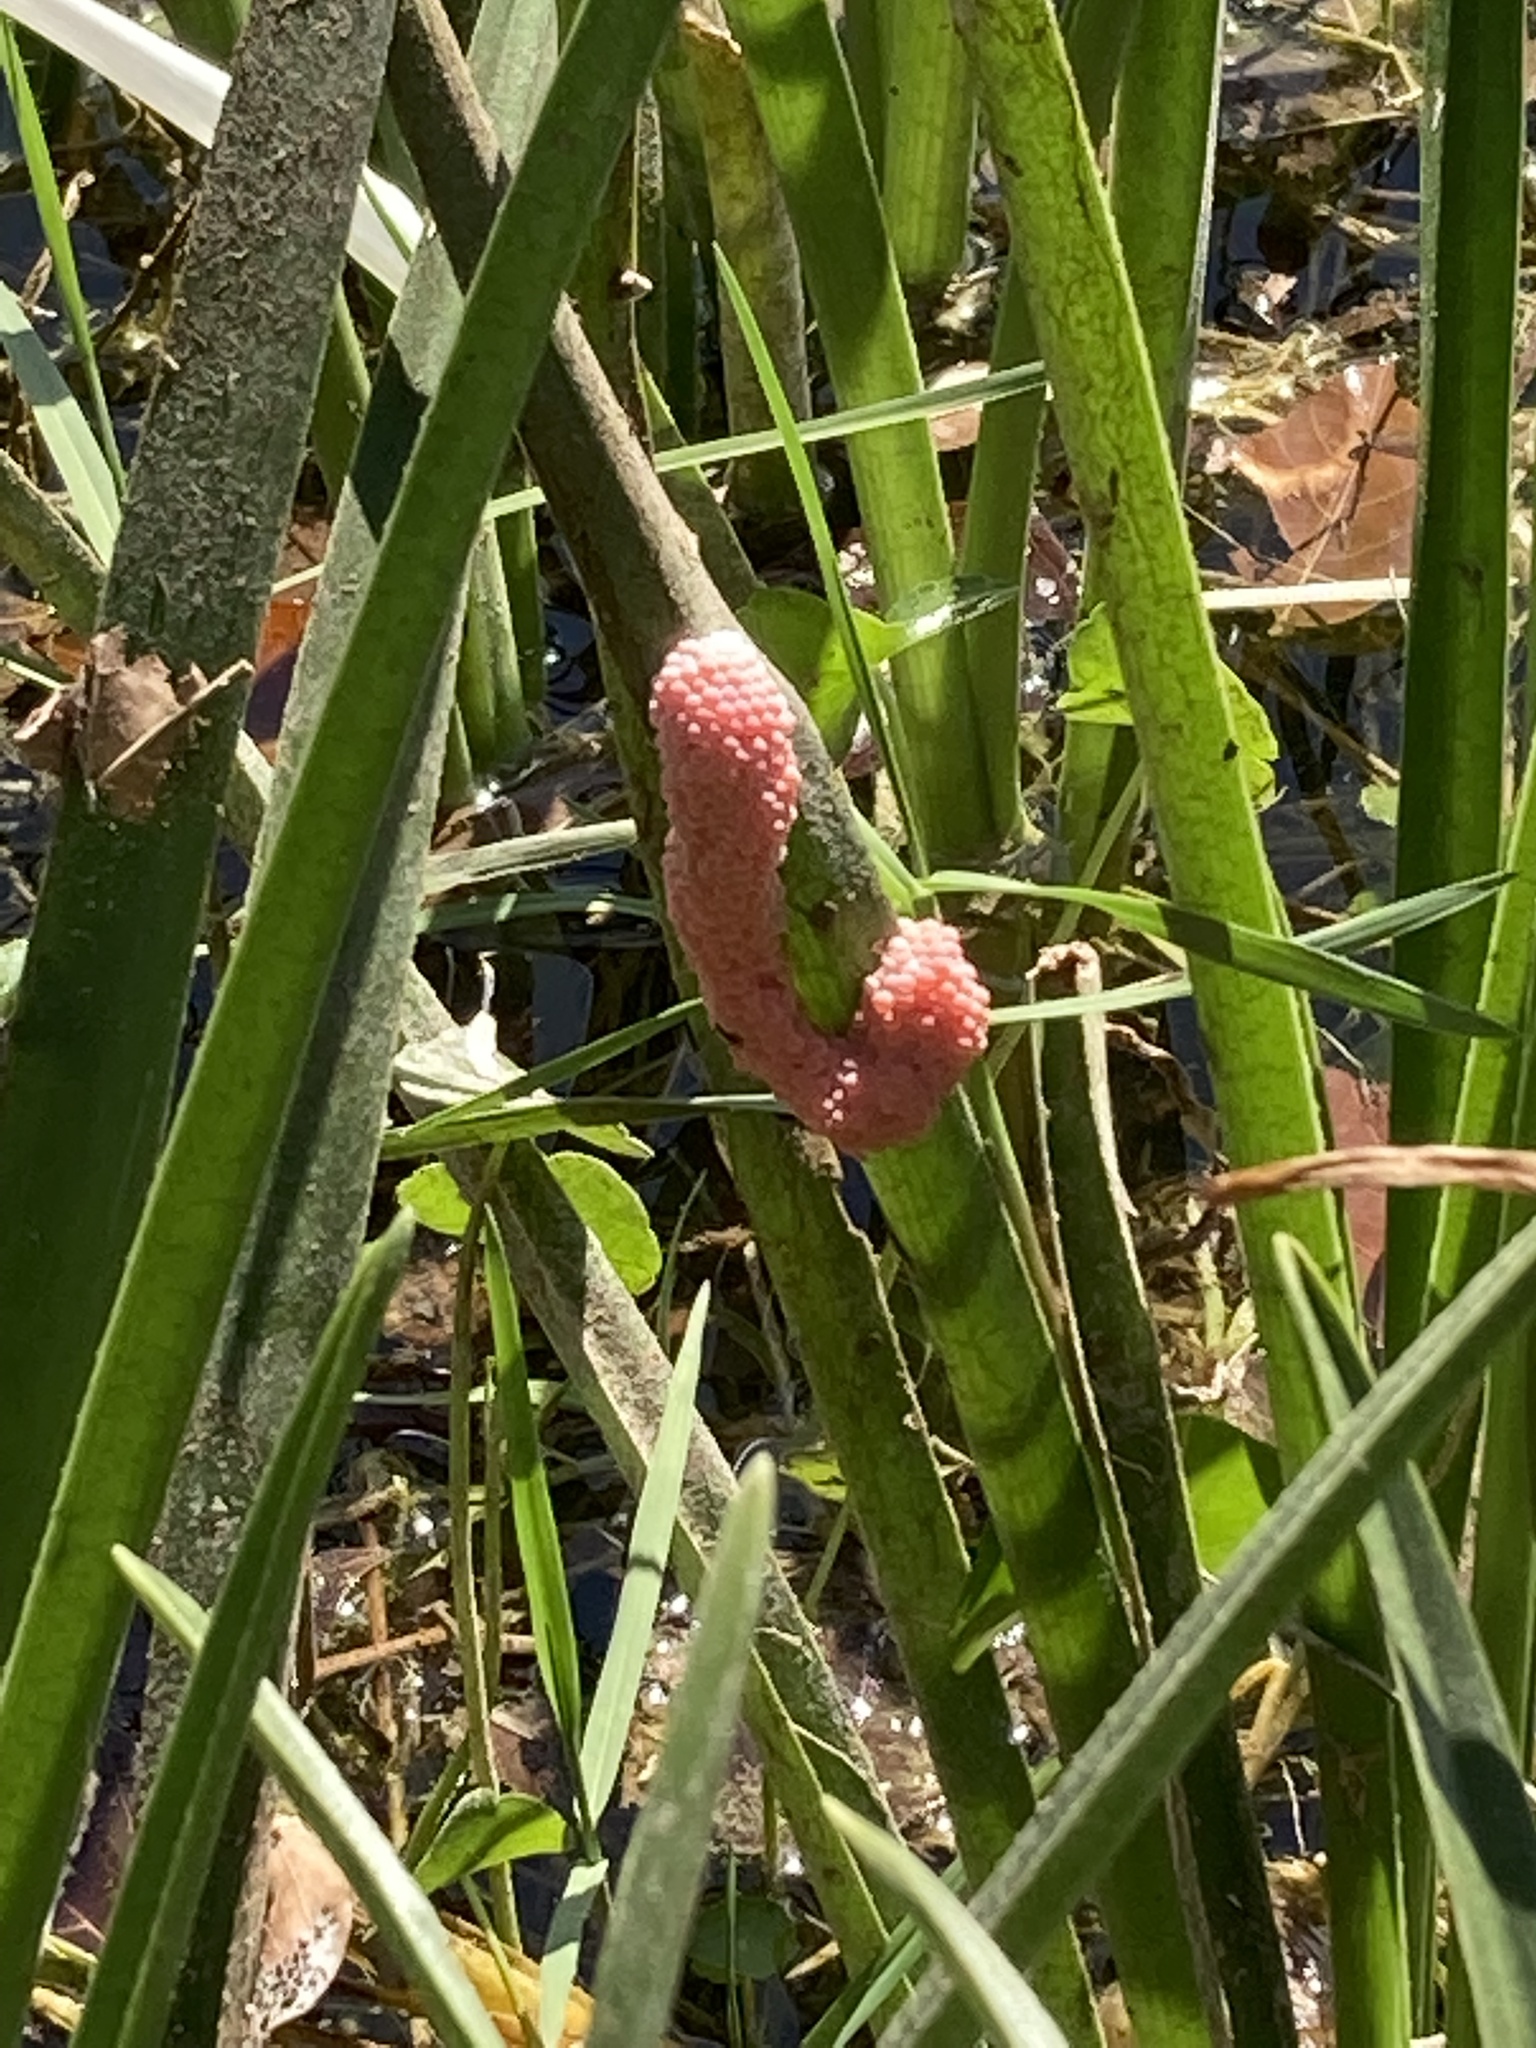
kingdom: Animalia
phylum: Mollusca
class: Gastropoda
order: Architaenioglossa
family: Ampullariidae
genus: Pomacea
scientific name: Pomacea maculata
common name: Giant applesnail
